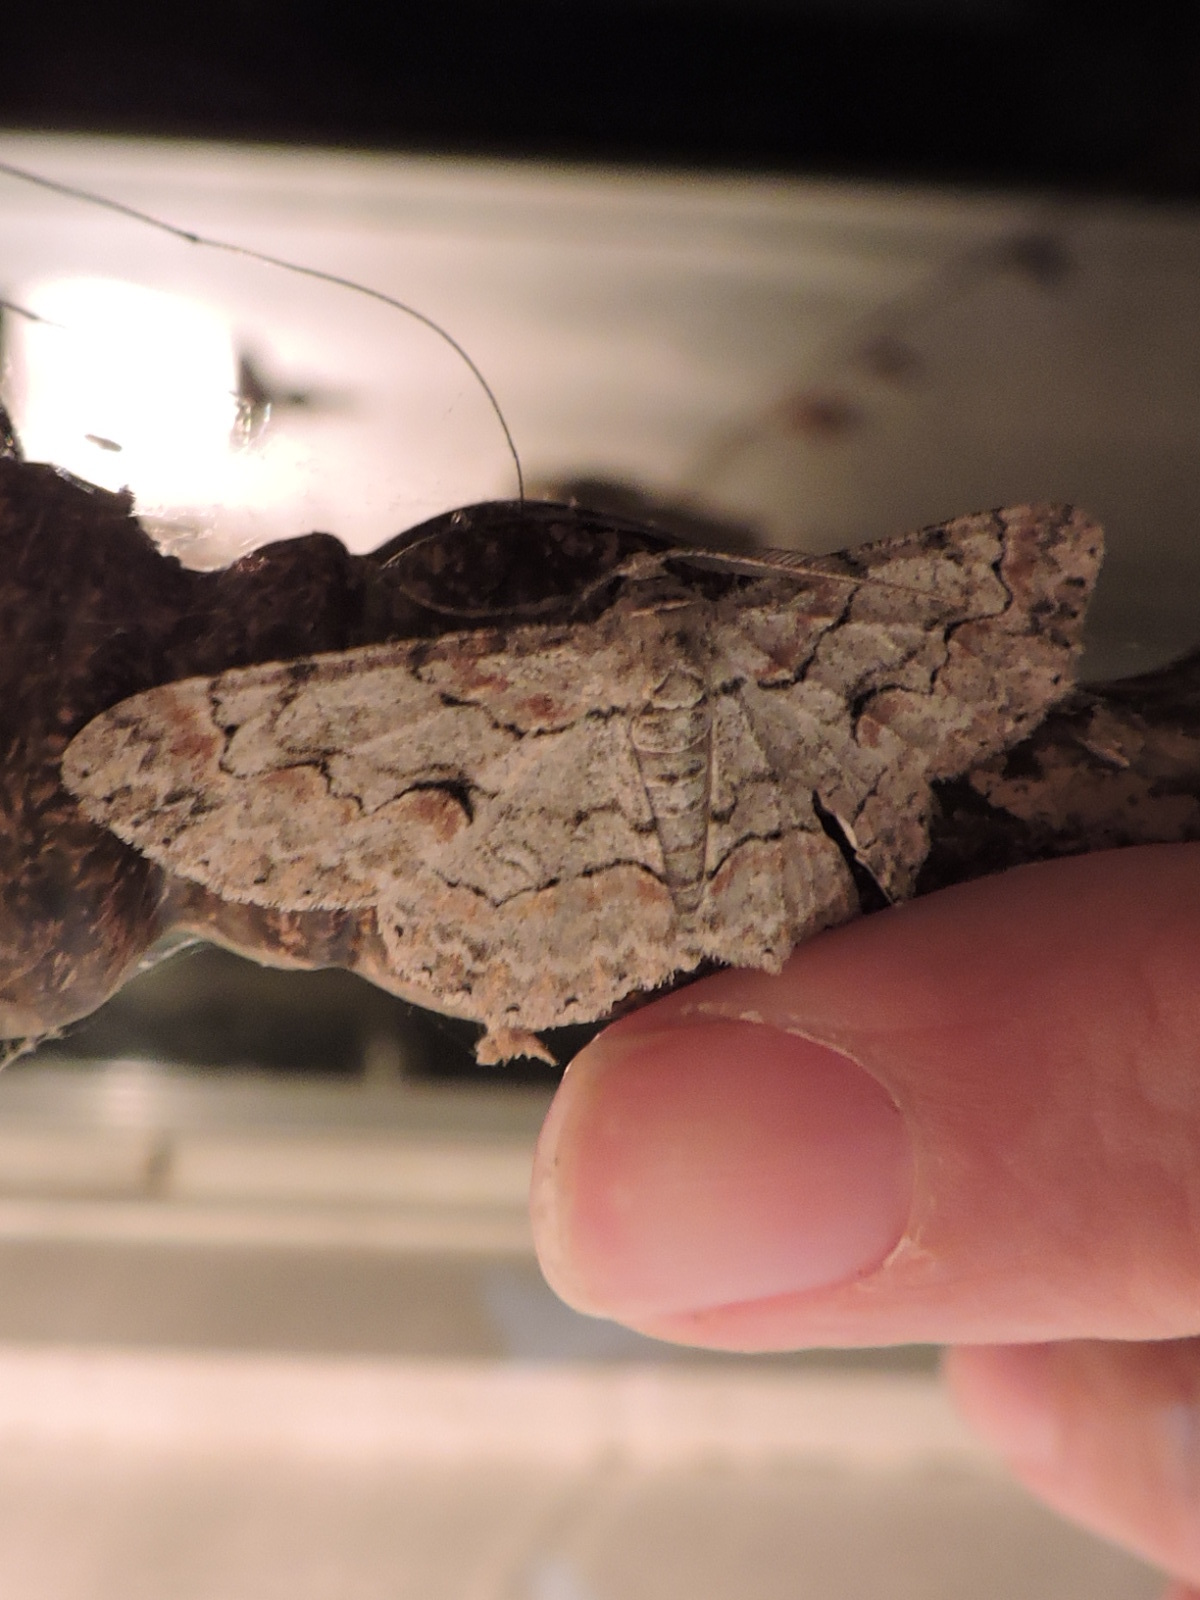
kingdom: Animalia
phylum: Arthropoda
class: Insecta
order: Lepidoptera
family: Geometridae
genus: Iridopsis
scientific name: Iridopsis defectaria
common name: Brown-shaded gray
